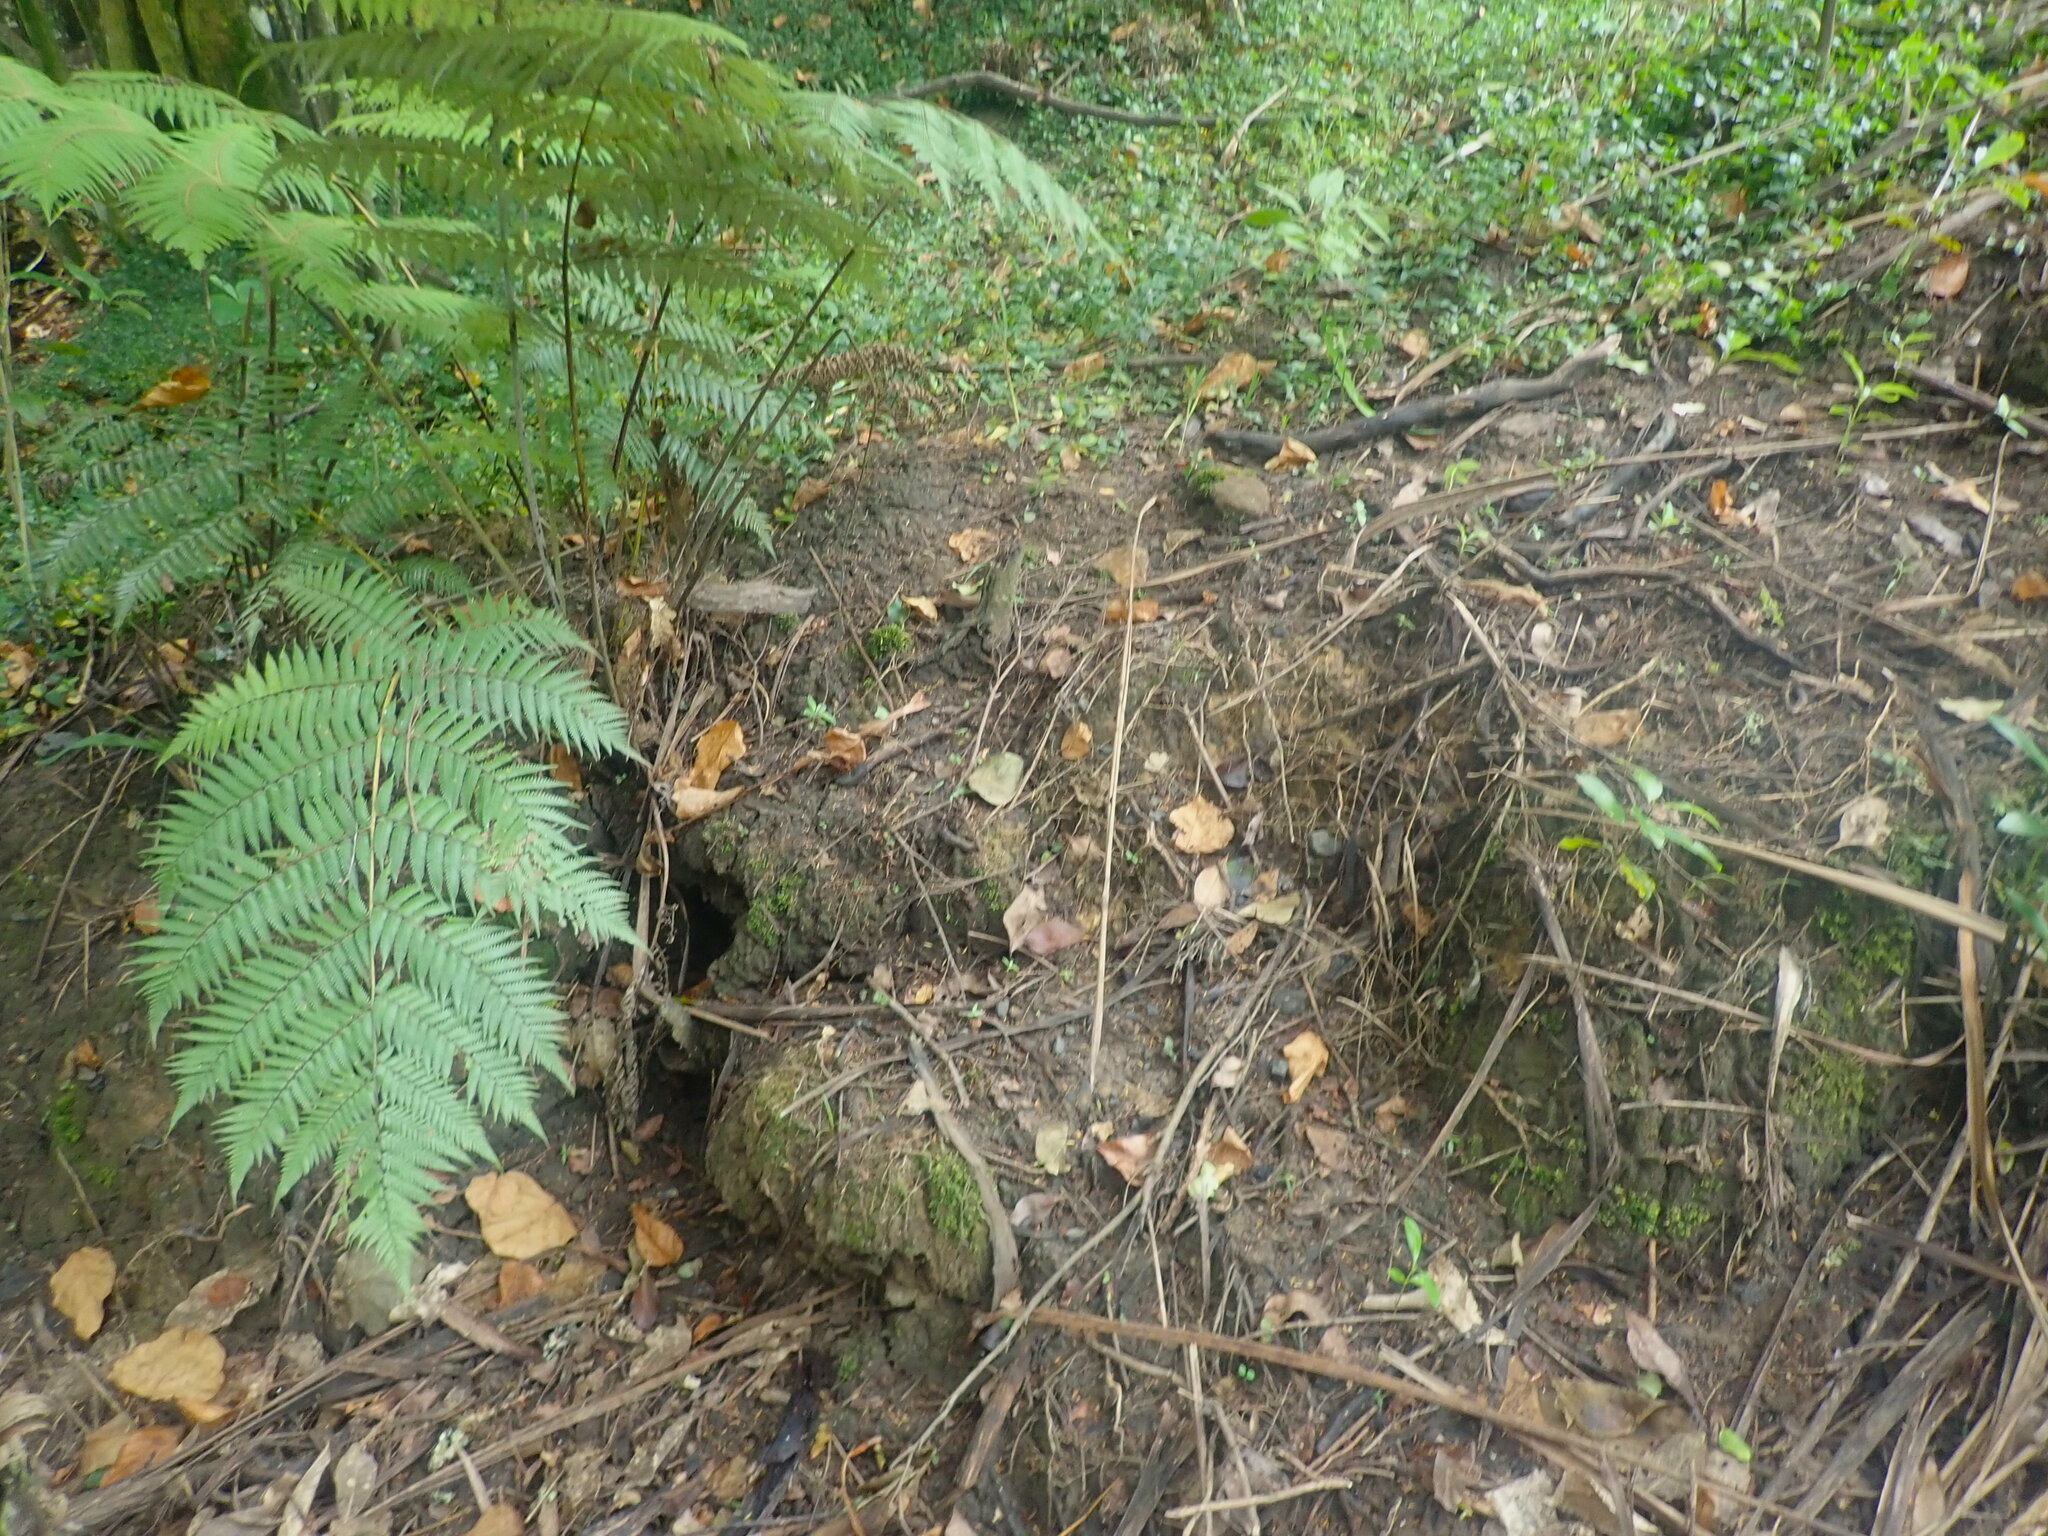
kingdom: Plantae
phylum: Tracheophyta
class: Polypodiopsida
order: Cyatheales
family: Cyatheaceae
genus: Alsophila
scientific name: Alsophila dealbata
